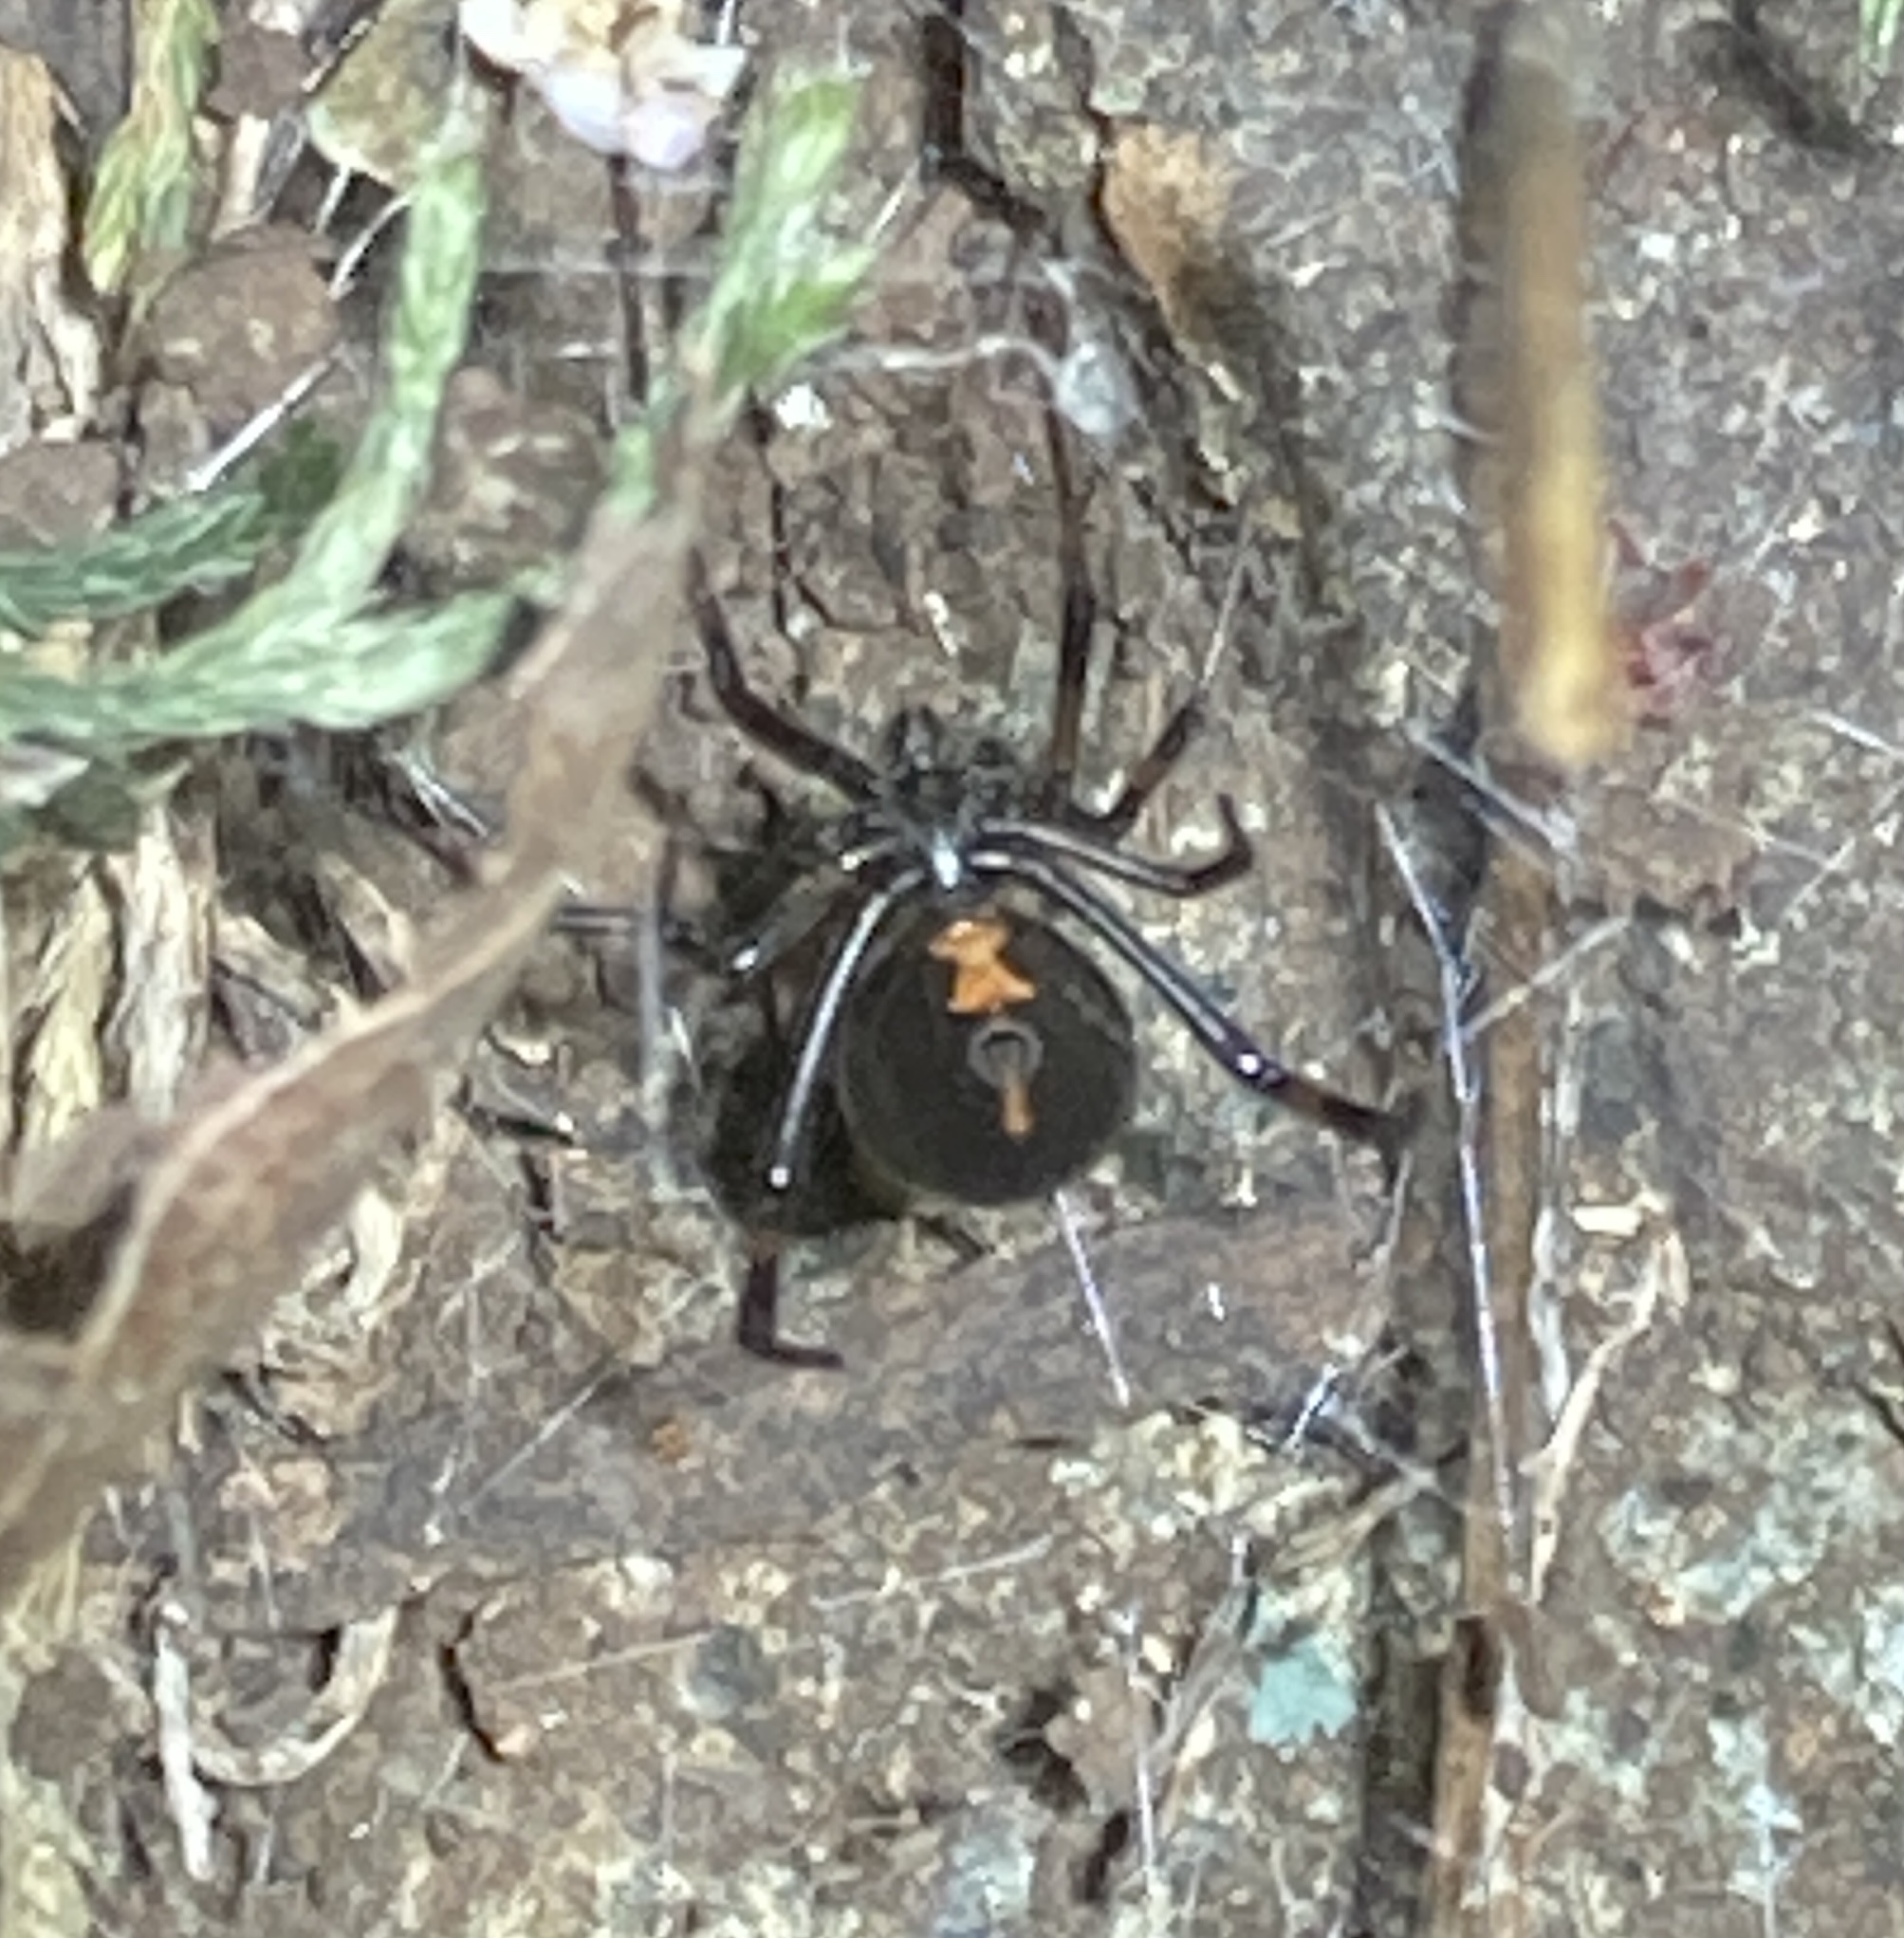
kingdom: Animalia
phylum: Arthropoda
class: Arachnida
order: Araneae
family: Theridiidae
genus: Latrodectus
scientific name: Latrodectus hesperus
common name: Western black widow
